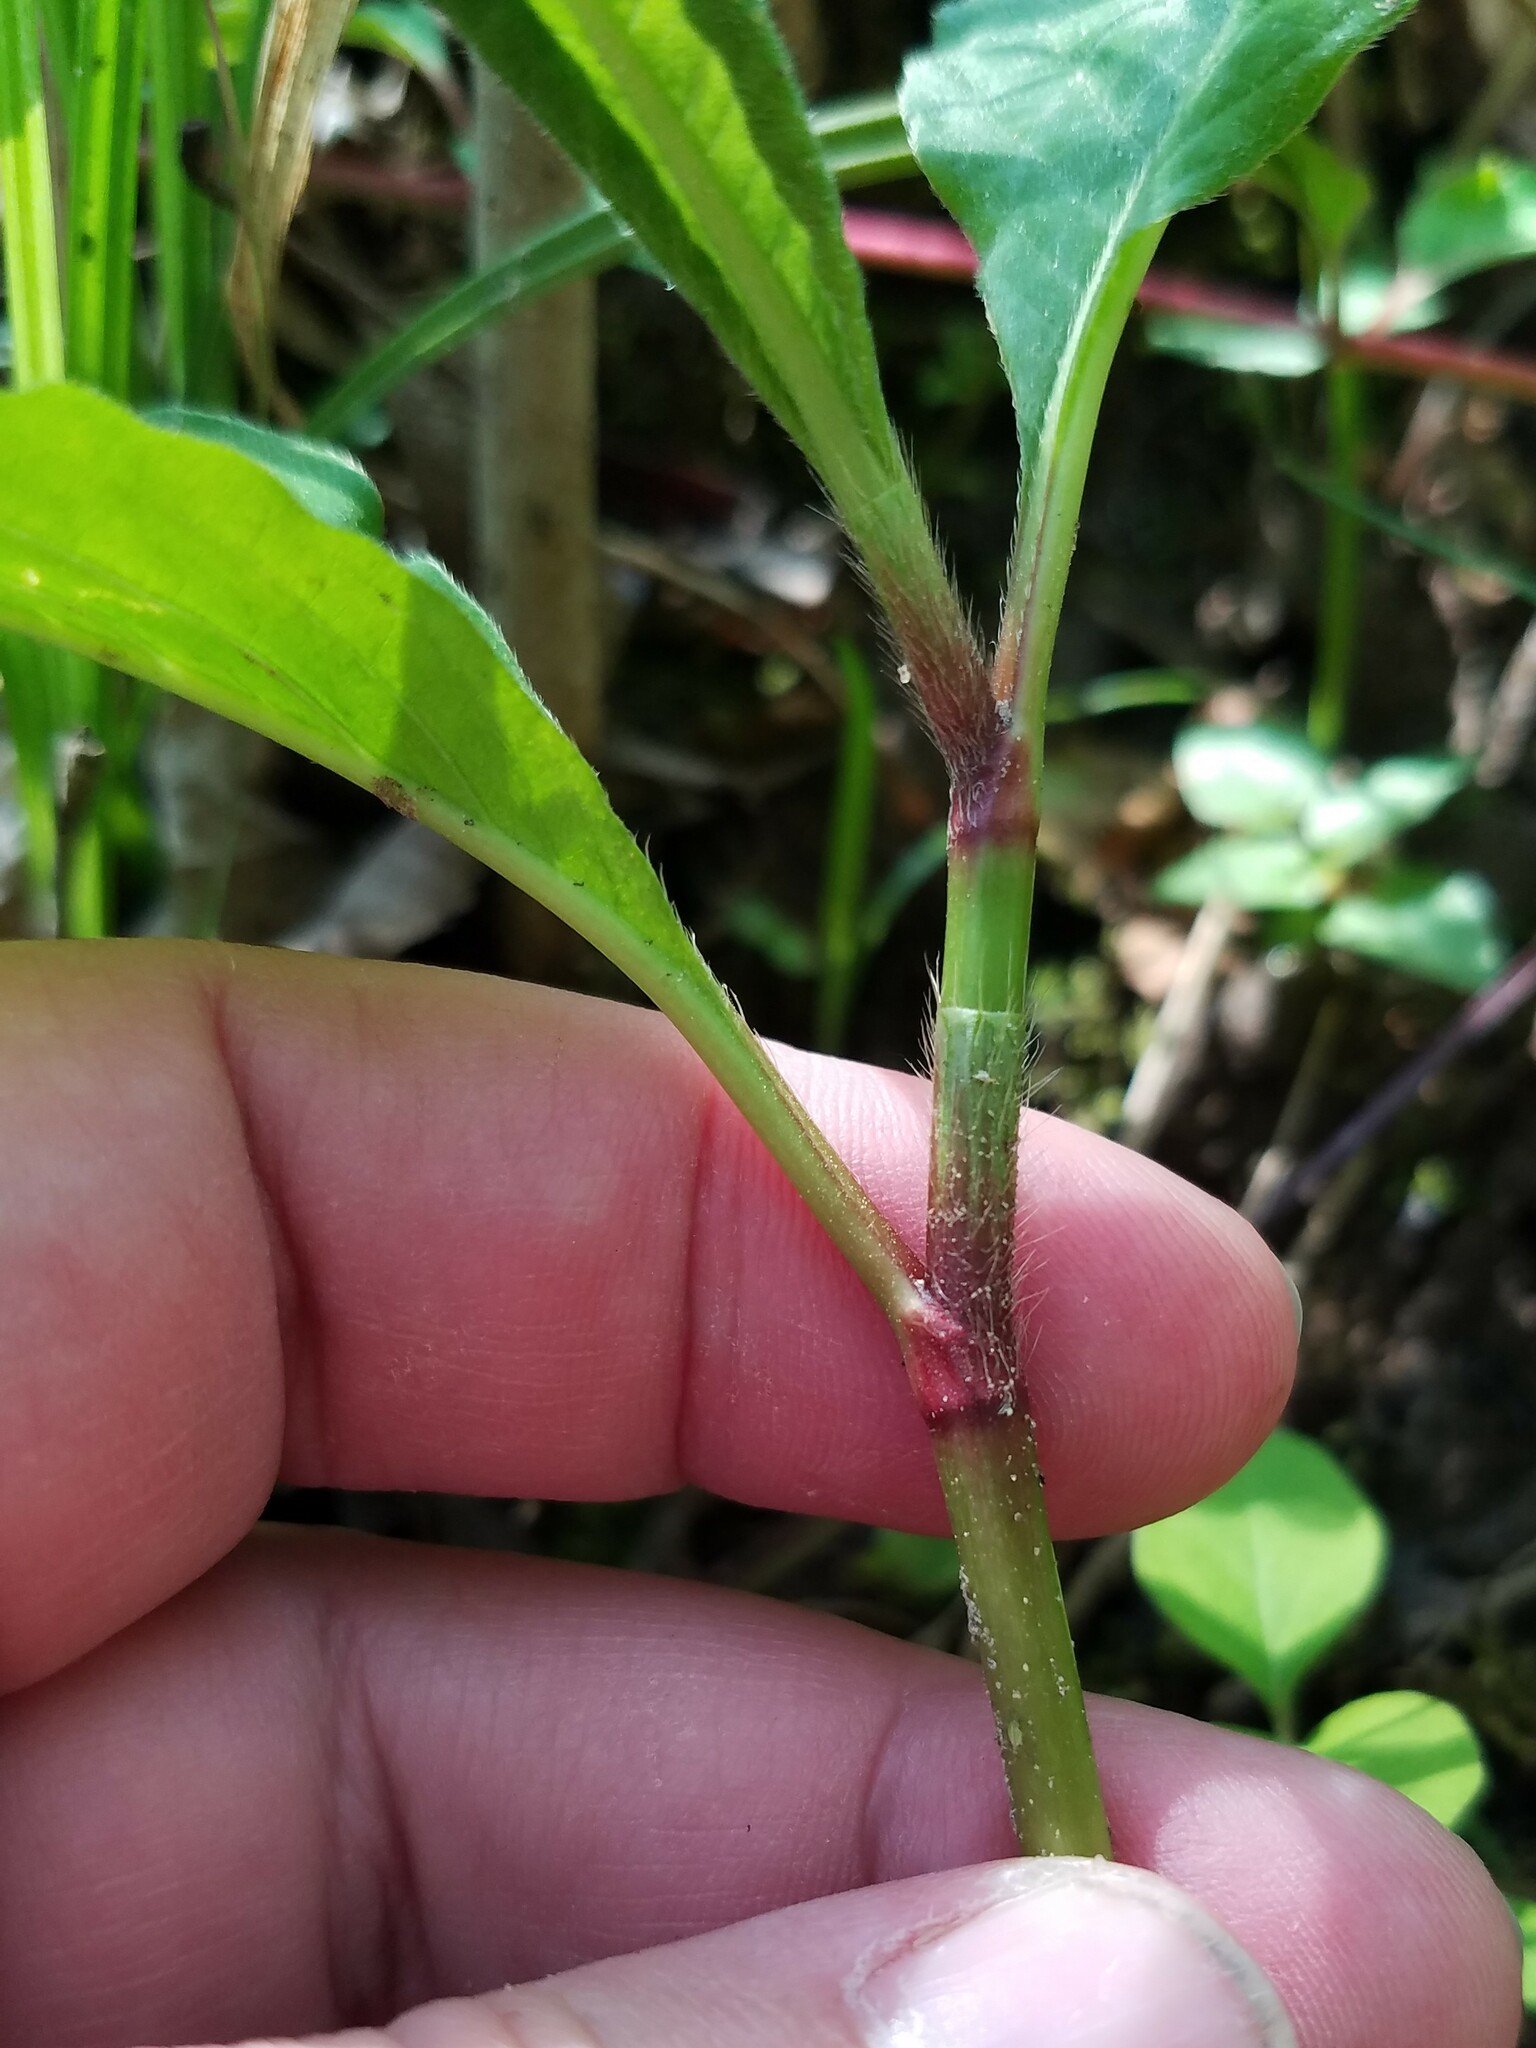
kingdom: Plantae
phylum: Tracheophyta
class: Magnoliopsida
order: Caryophyllales
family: Polygonaceae
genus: Persicaria
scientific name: Persicaria virginiana
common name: Jumpseed
